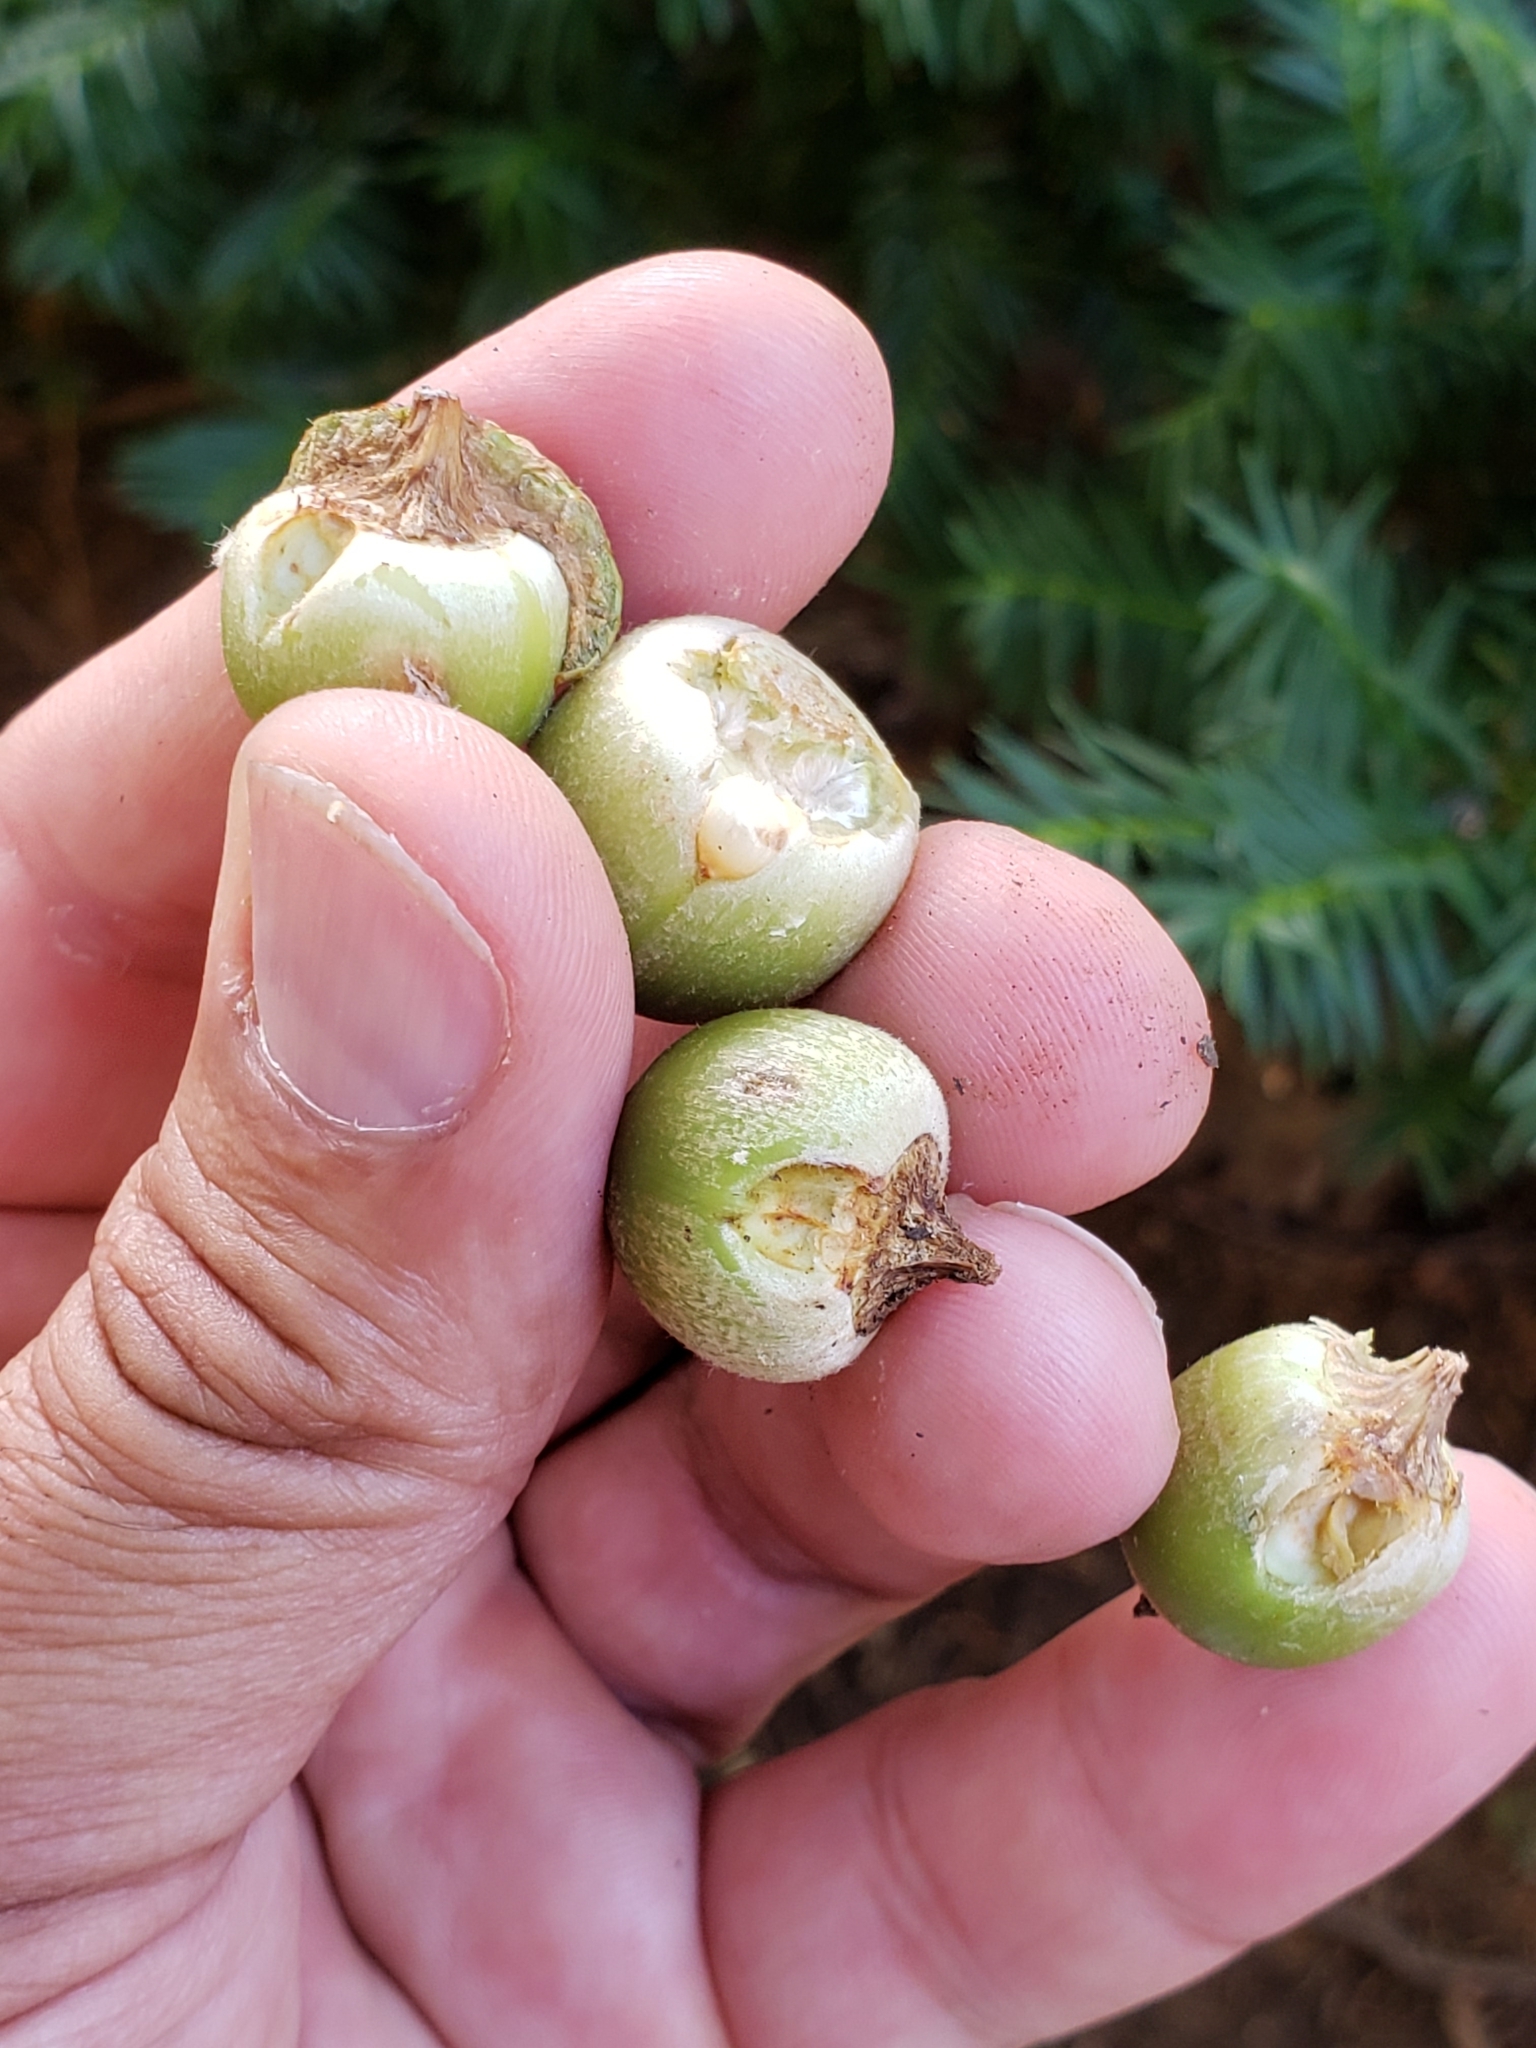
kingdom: Animalia
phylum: Arthropoda
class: Insecta
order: Hymenoptera
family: Cynipidae
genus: Callirhytis
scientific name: Callirhytis
